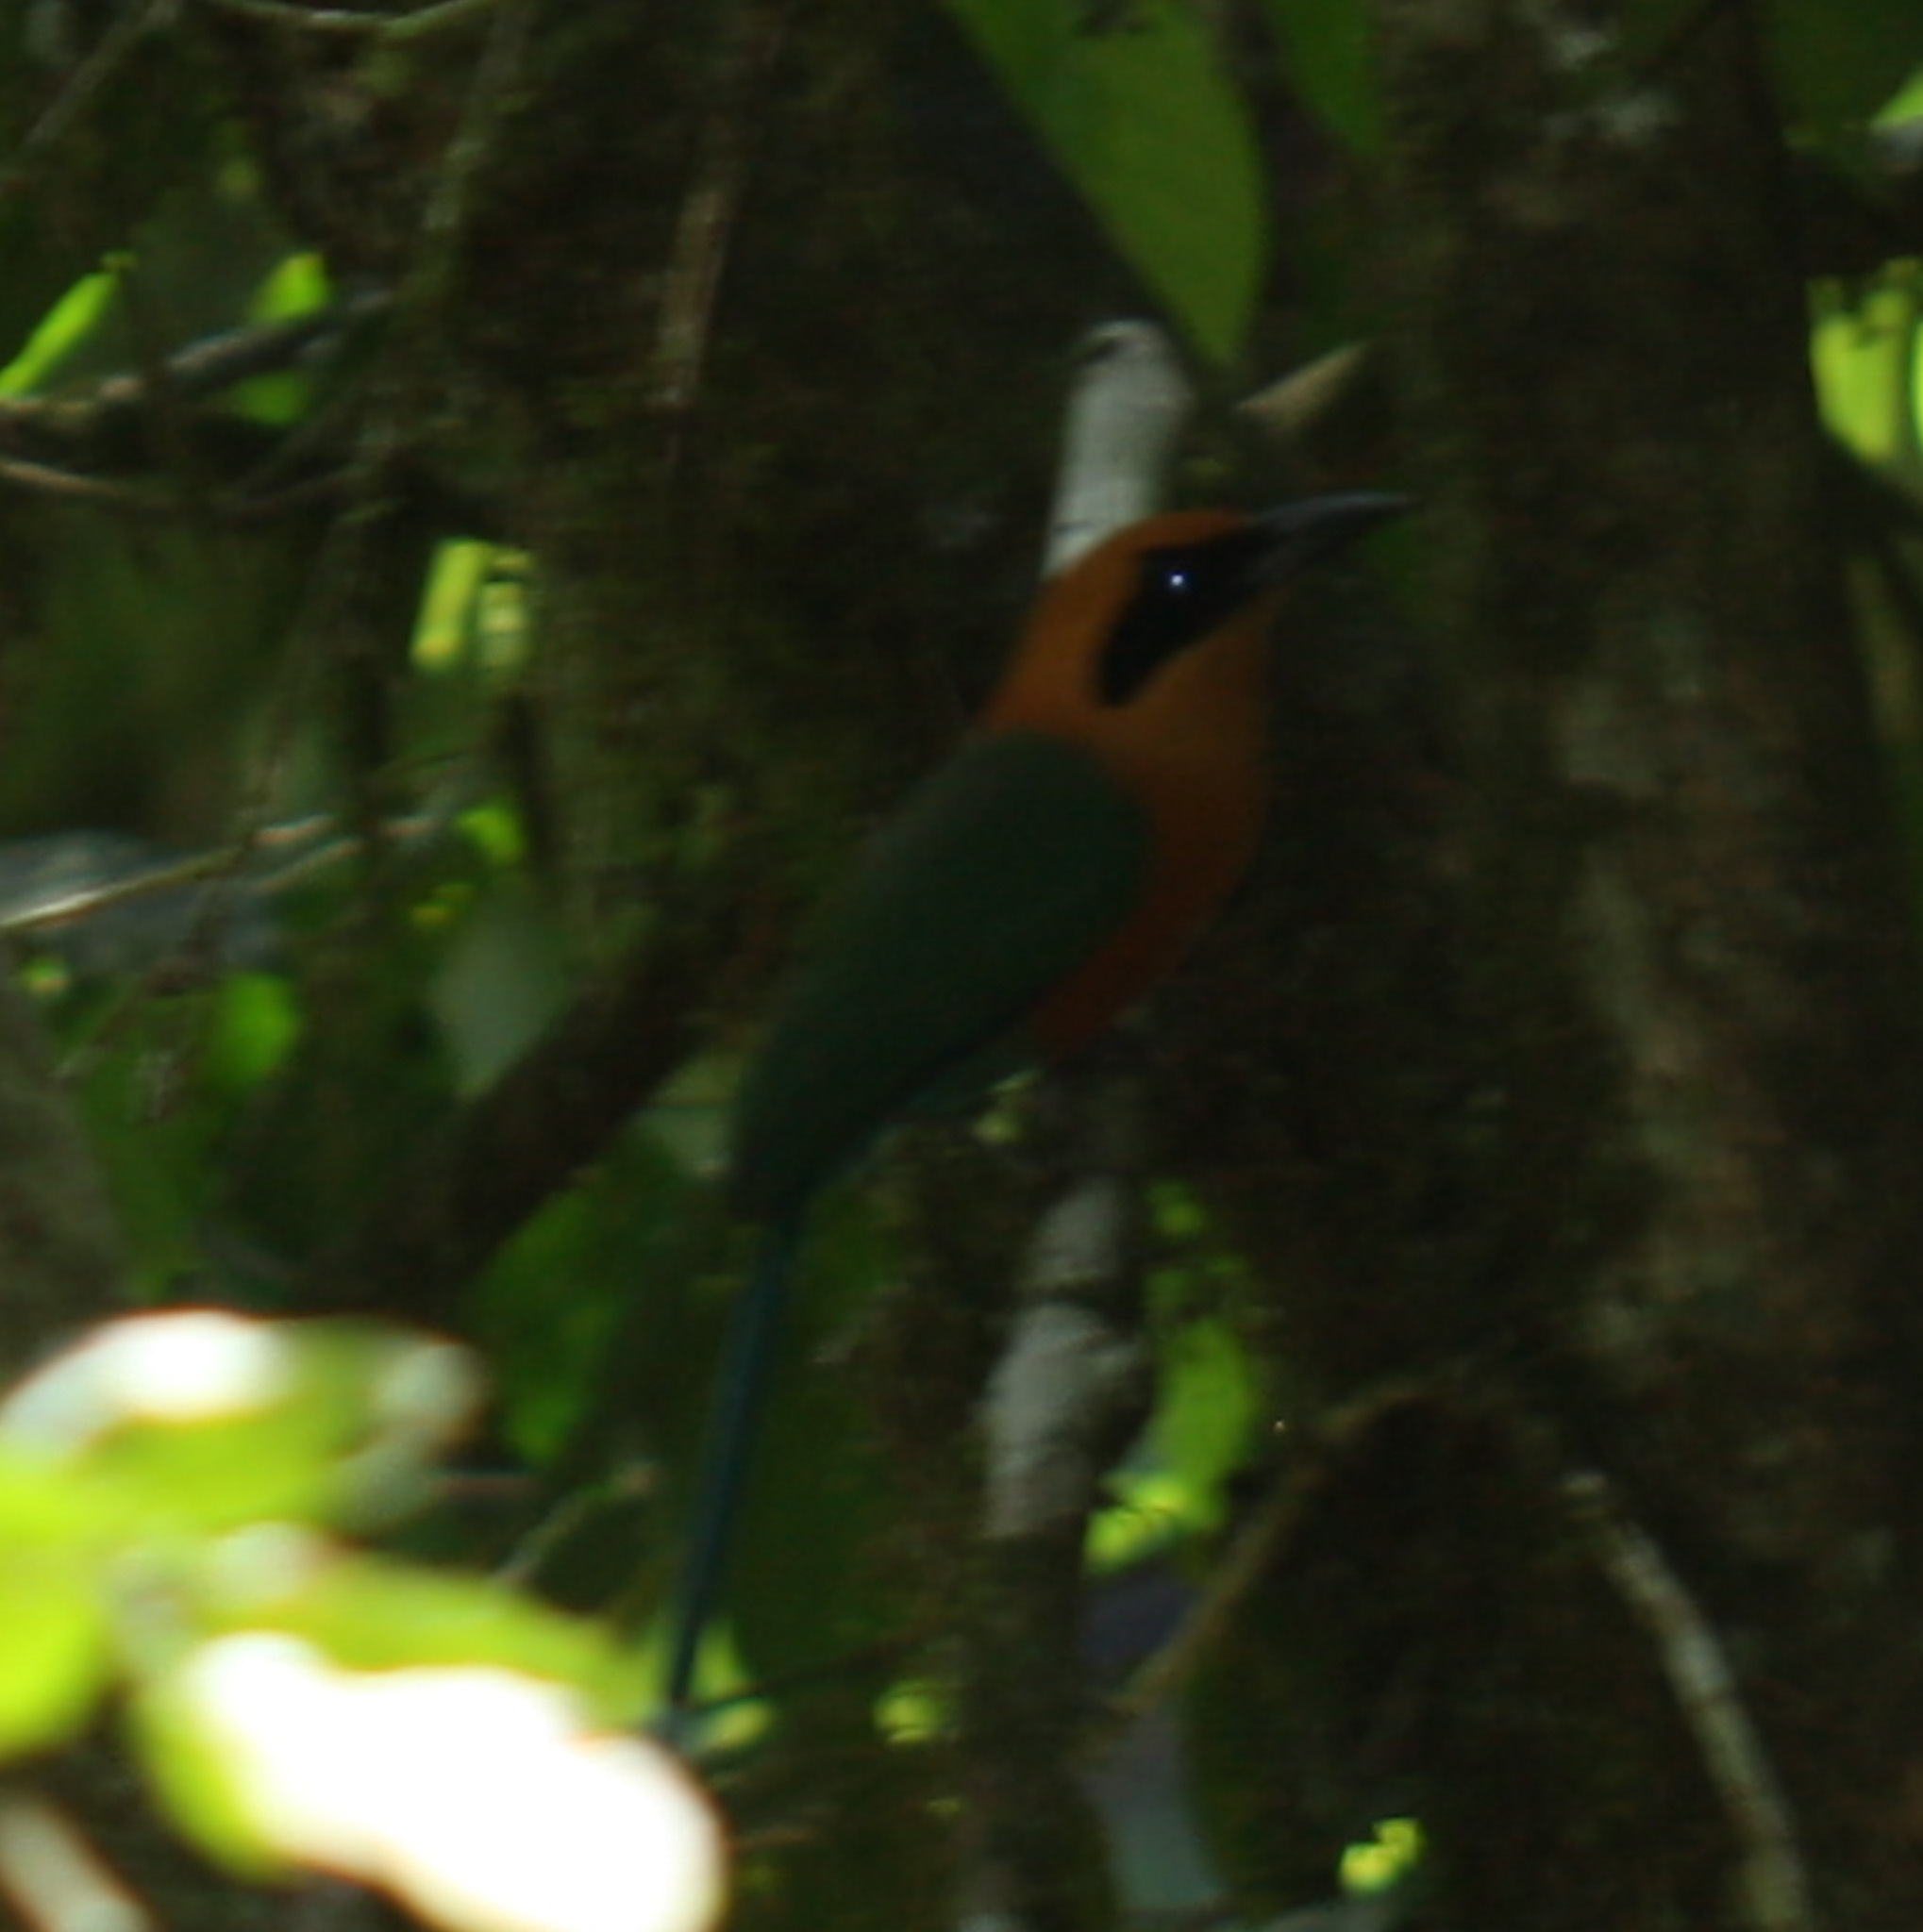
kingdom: Animalia
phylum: Chordata
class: Aves
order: Coraciiformes
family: Momotidae
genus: Baryphthengus
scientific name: Baryphthengus martii
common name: Rufous motmot
